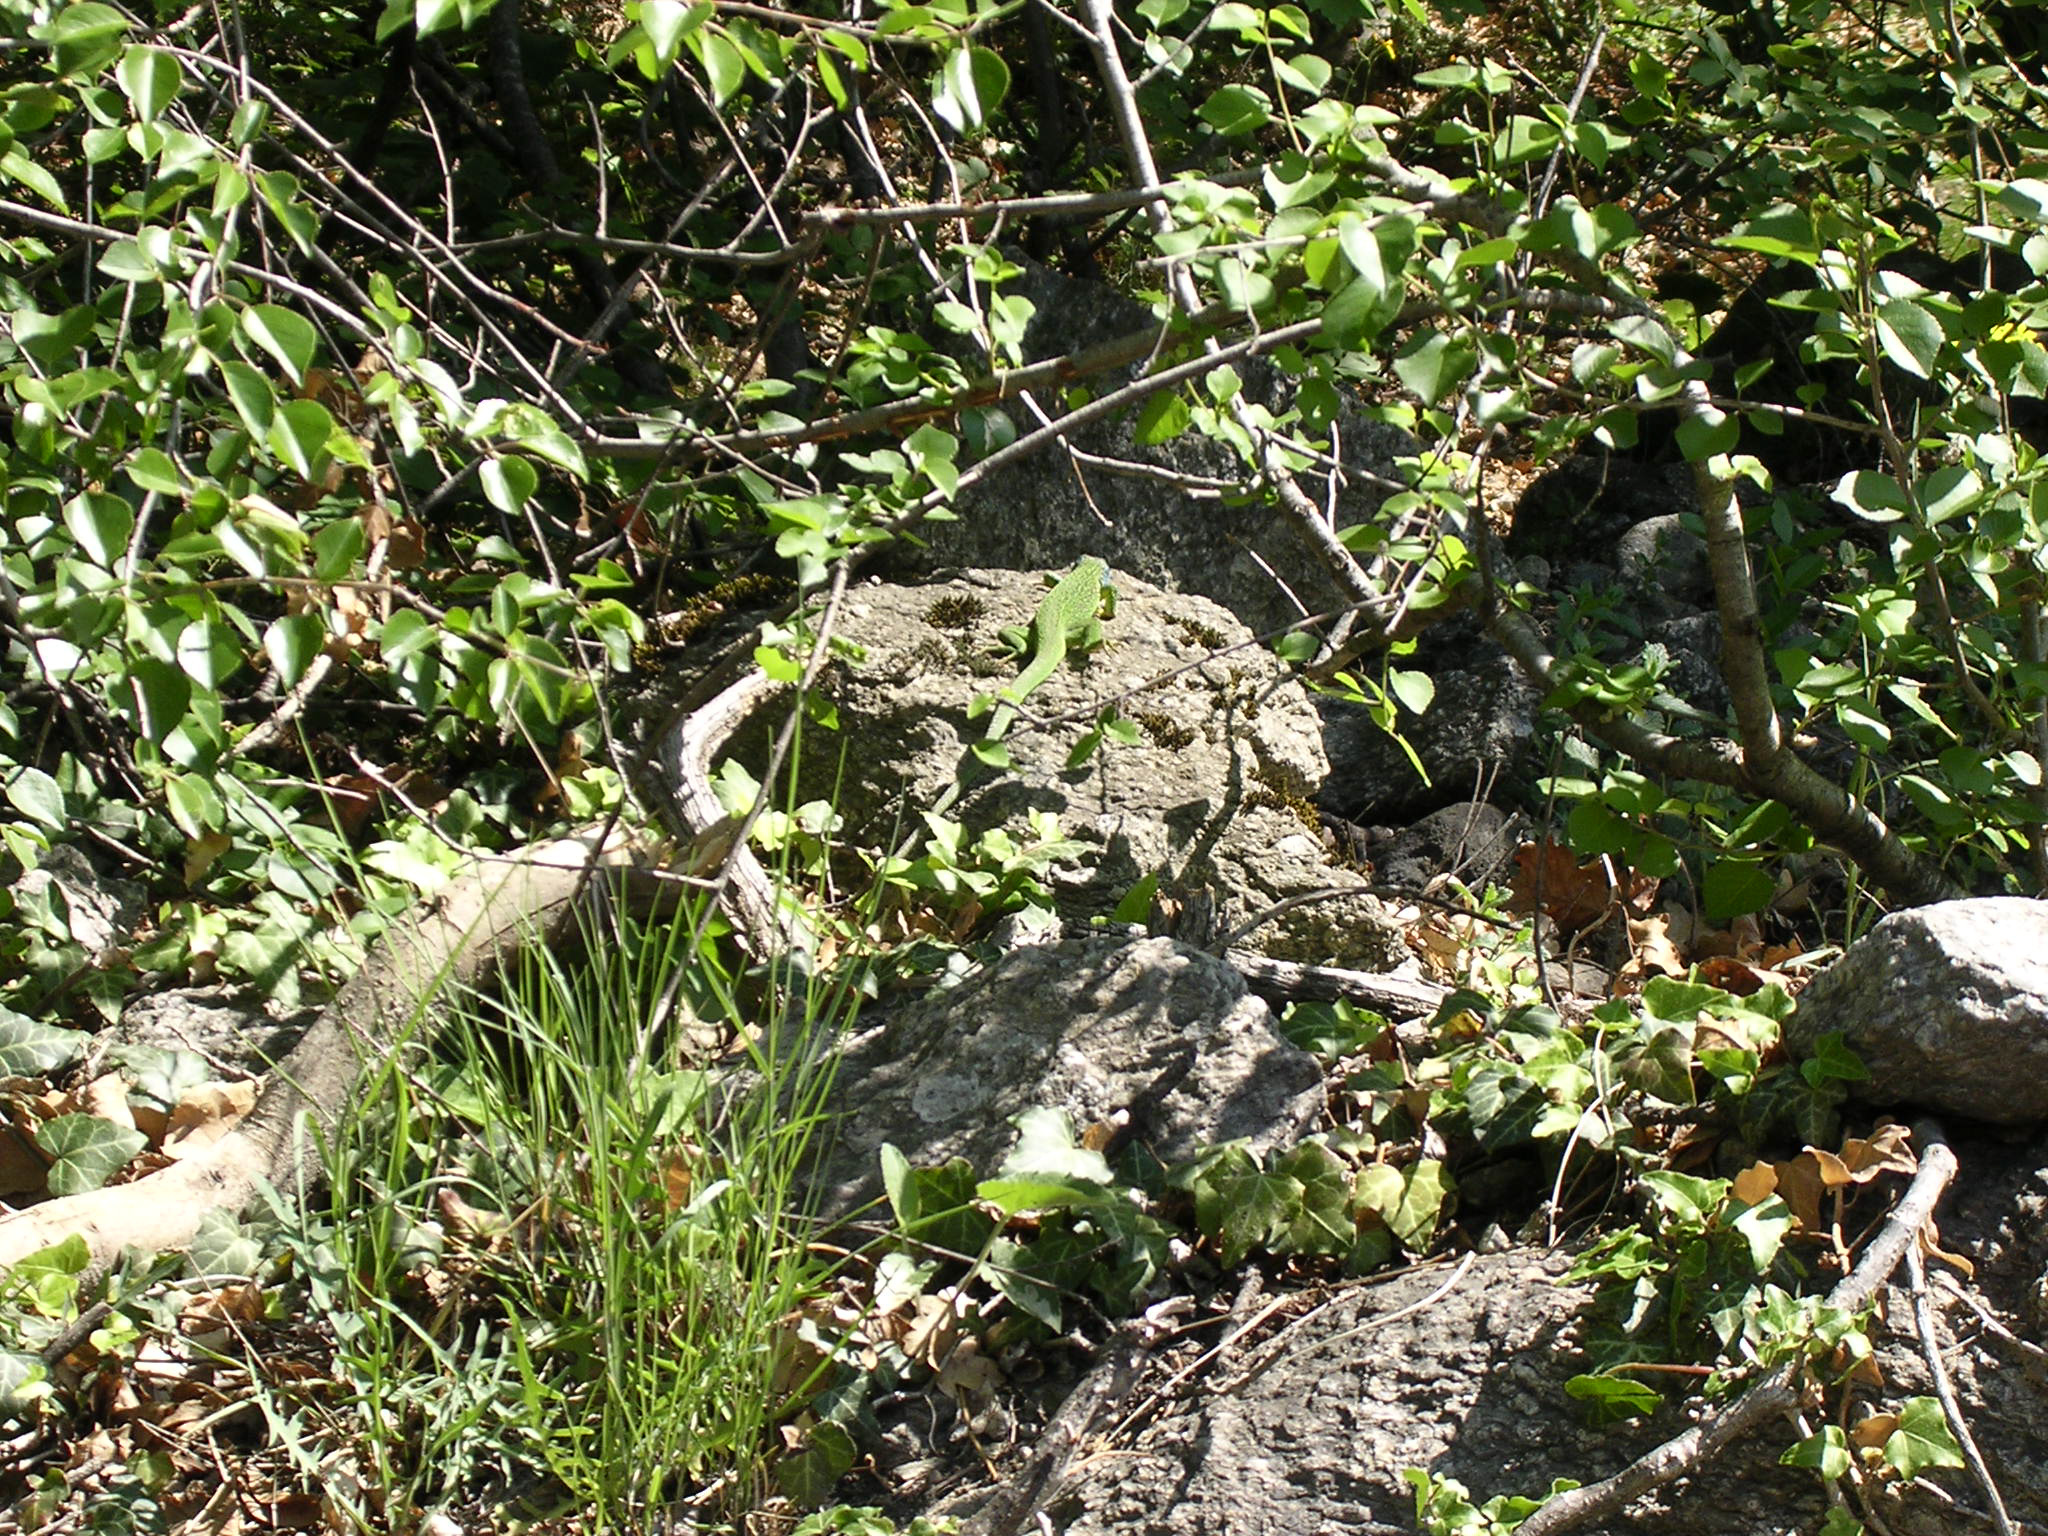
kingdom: Animalia
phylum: Chordata
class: Squamata
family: Lacertidae
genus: Lacerta
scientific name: Lacerta bilineata
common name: Western green lizard
